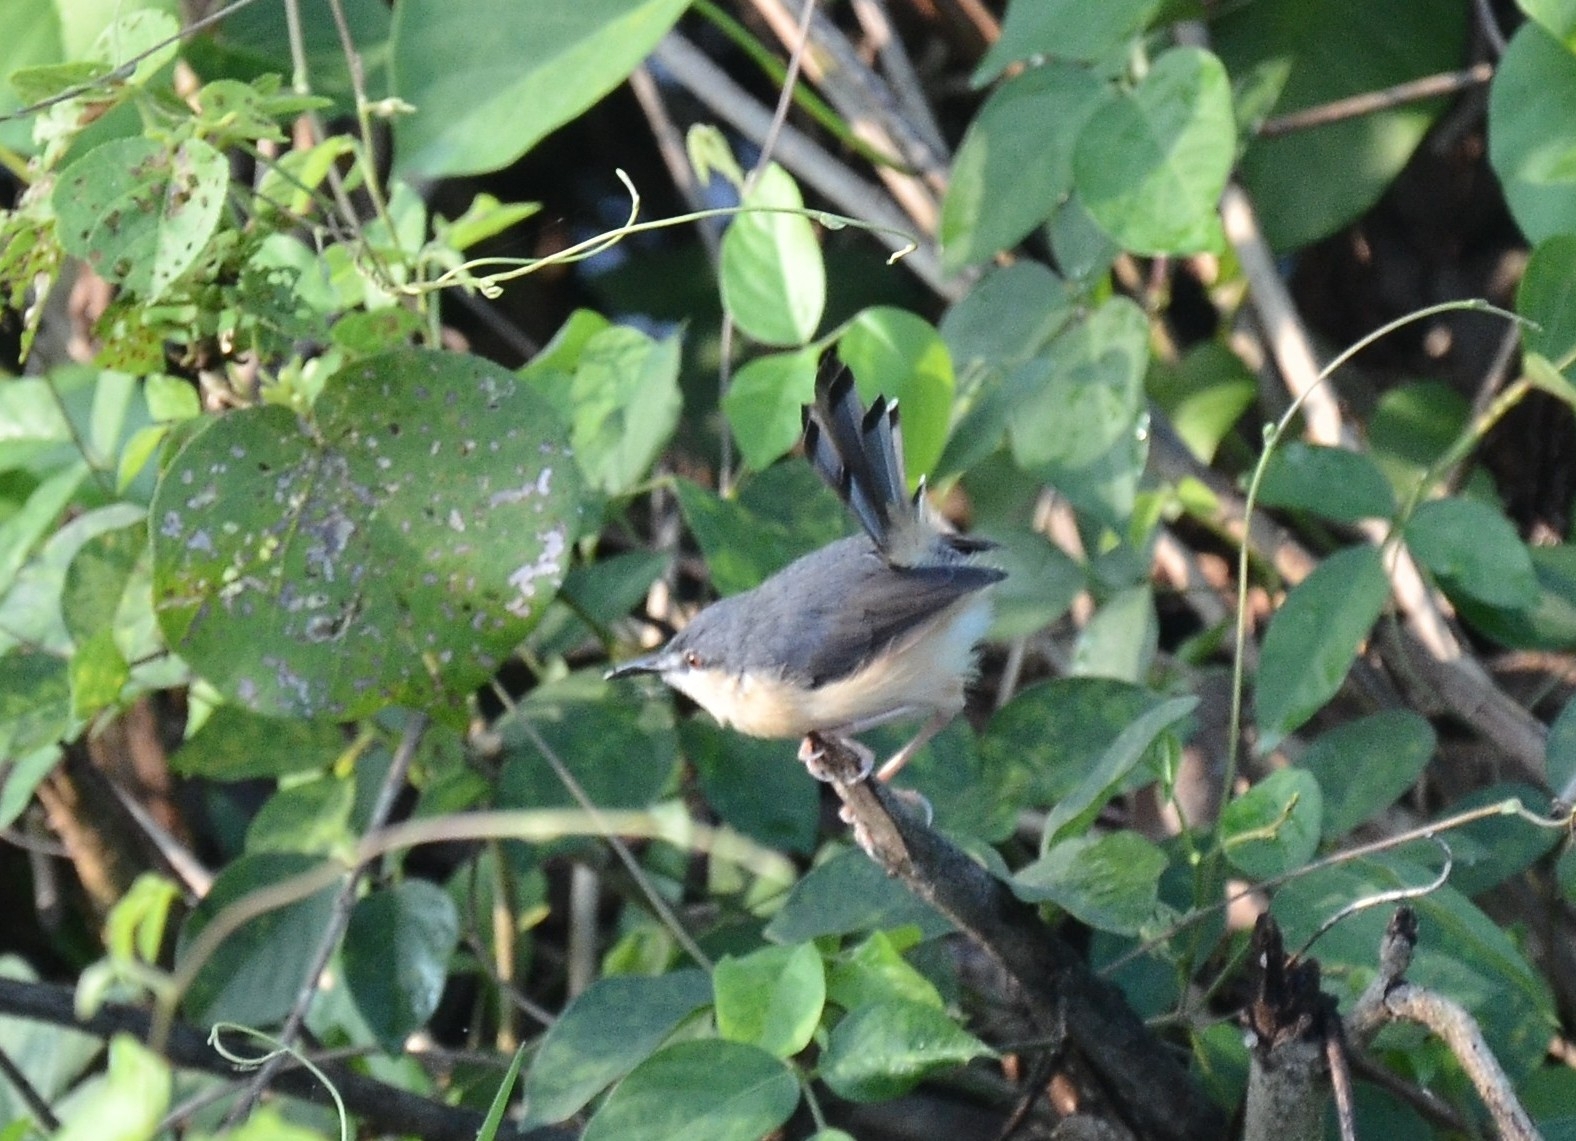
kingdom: Animalia
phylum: Chordata
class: Aves
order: Passeriformes
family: Cisticolidae
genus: Prinia
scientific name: Prinia socialis
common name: Ashy prinia
